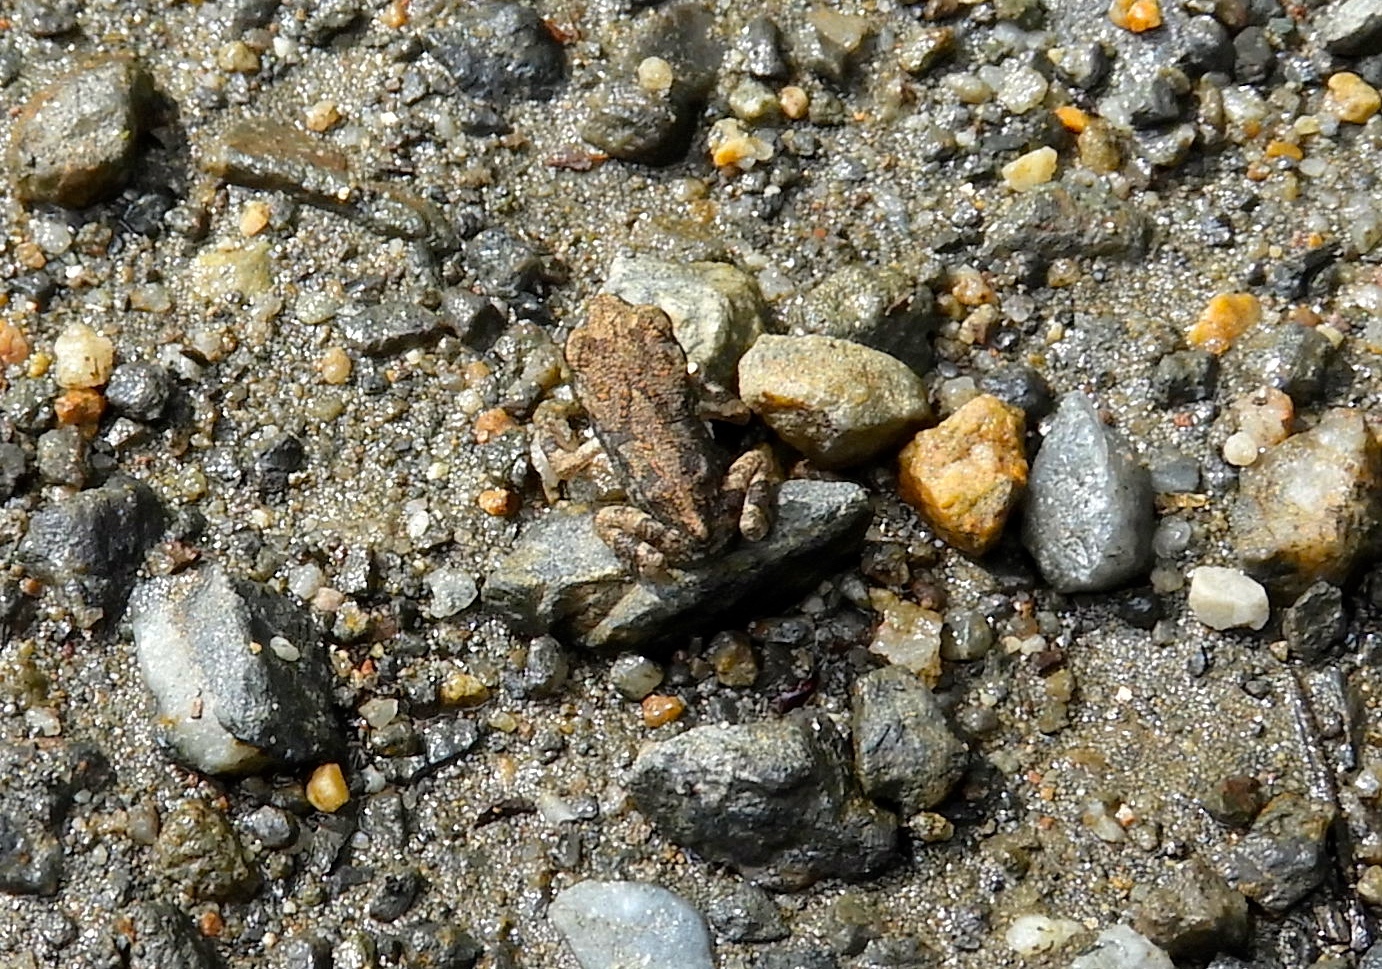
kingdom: Animalia
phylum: Chordata
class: Amphibia
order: Anura
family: Bufonidae
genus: Incilius
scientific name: Incilius marmoreus
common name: Marbled toad
